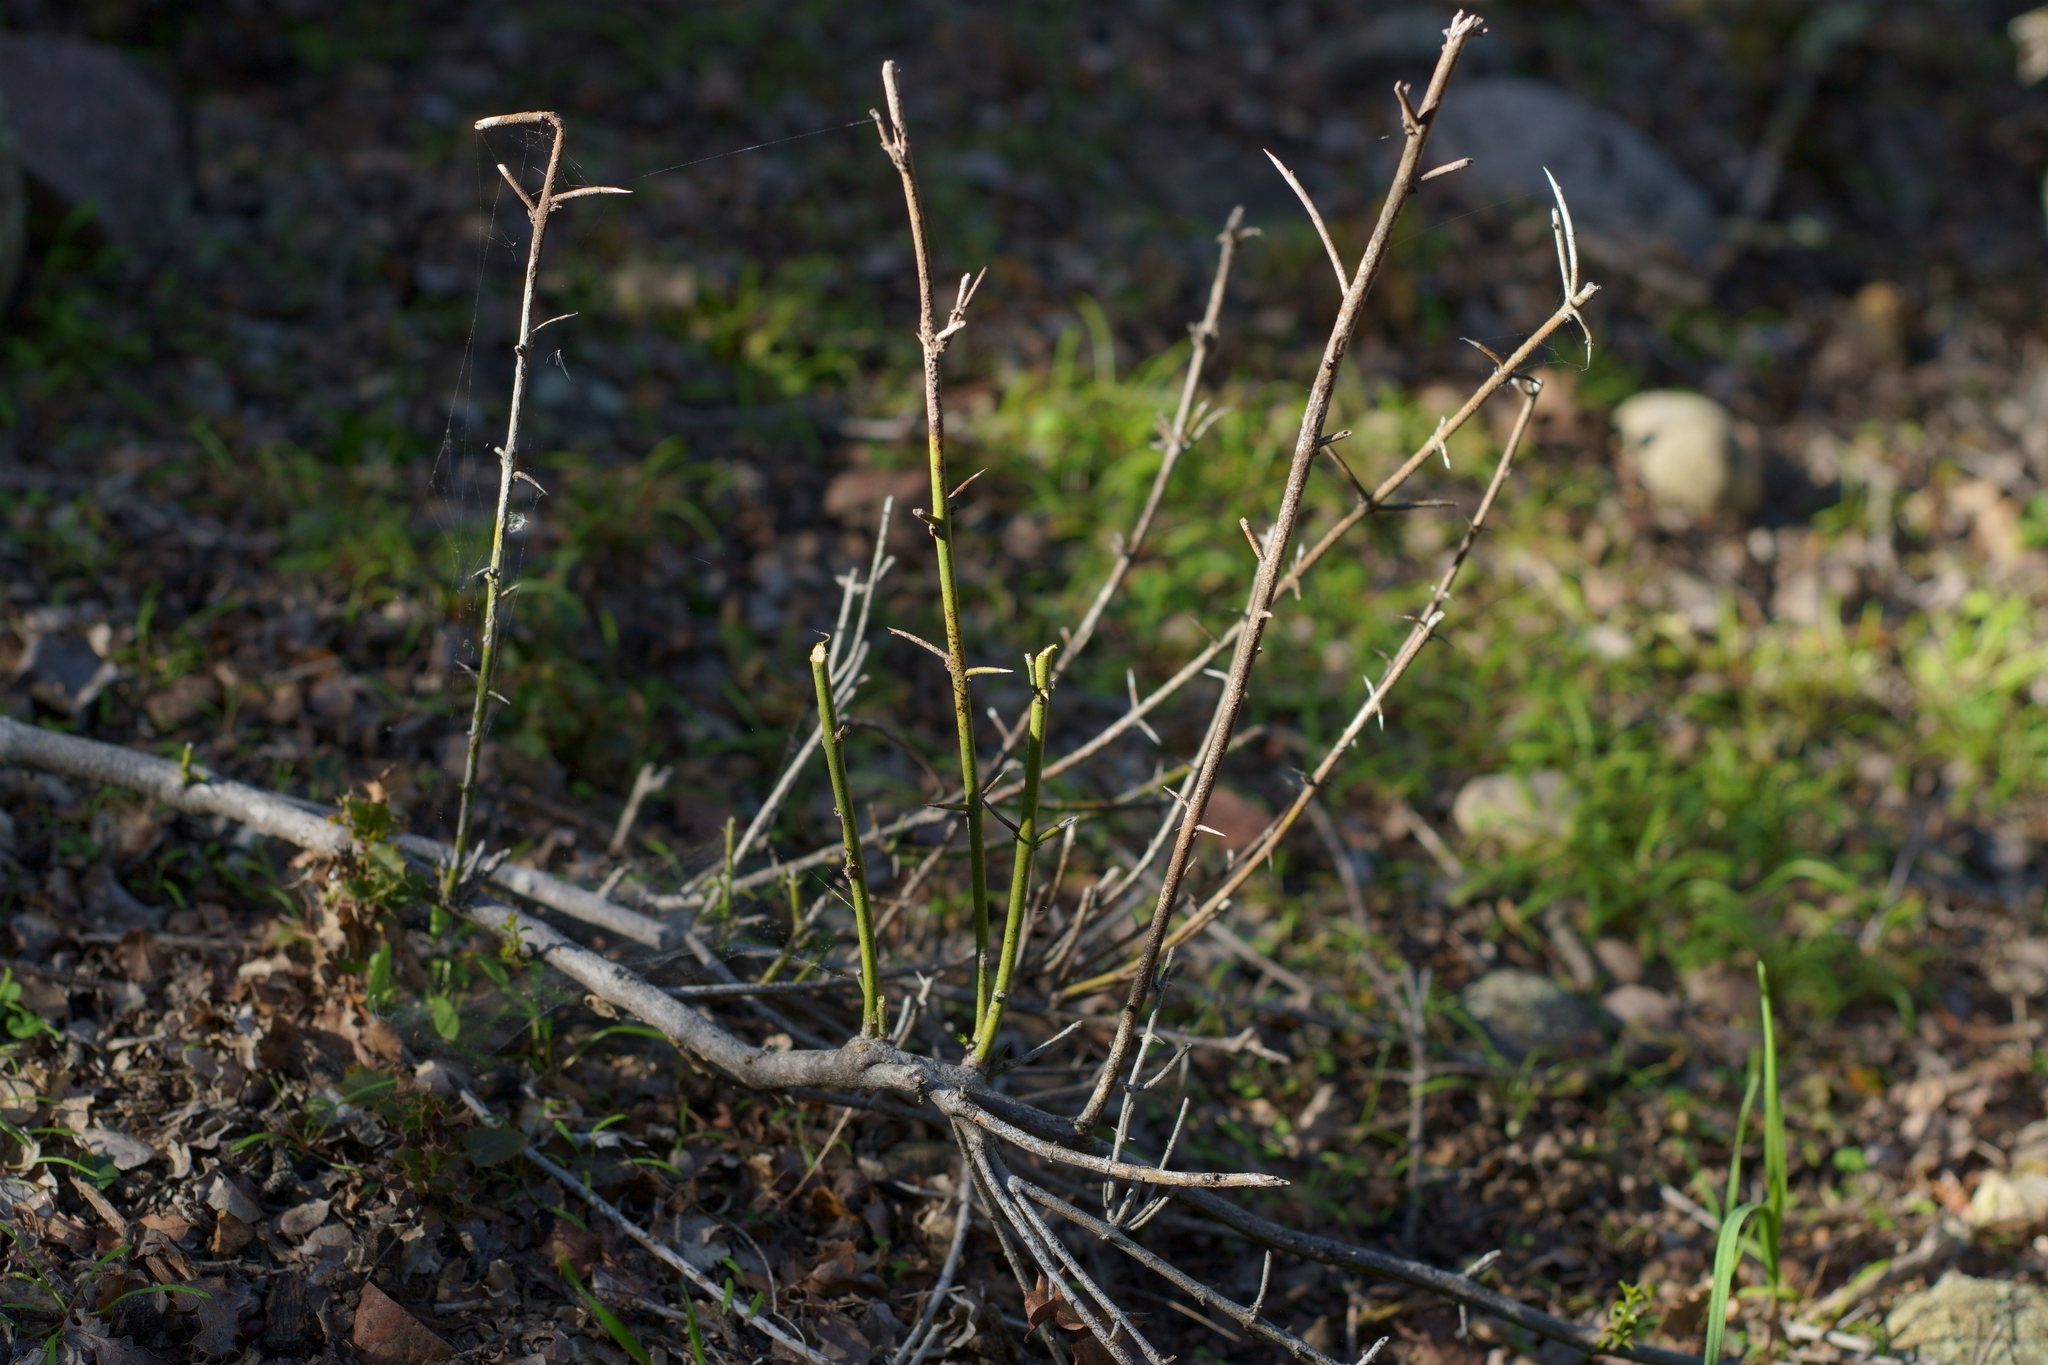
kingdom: Plantae
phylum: Tracheophyta
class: Magnoliopsida
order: Rosales
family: Rhamnaceae
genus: Adolphia
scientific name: Adolphia californica
